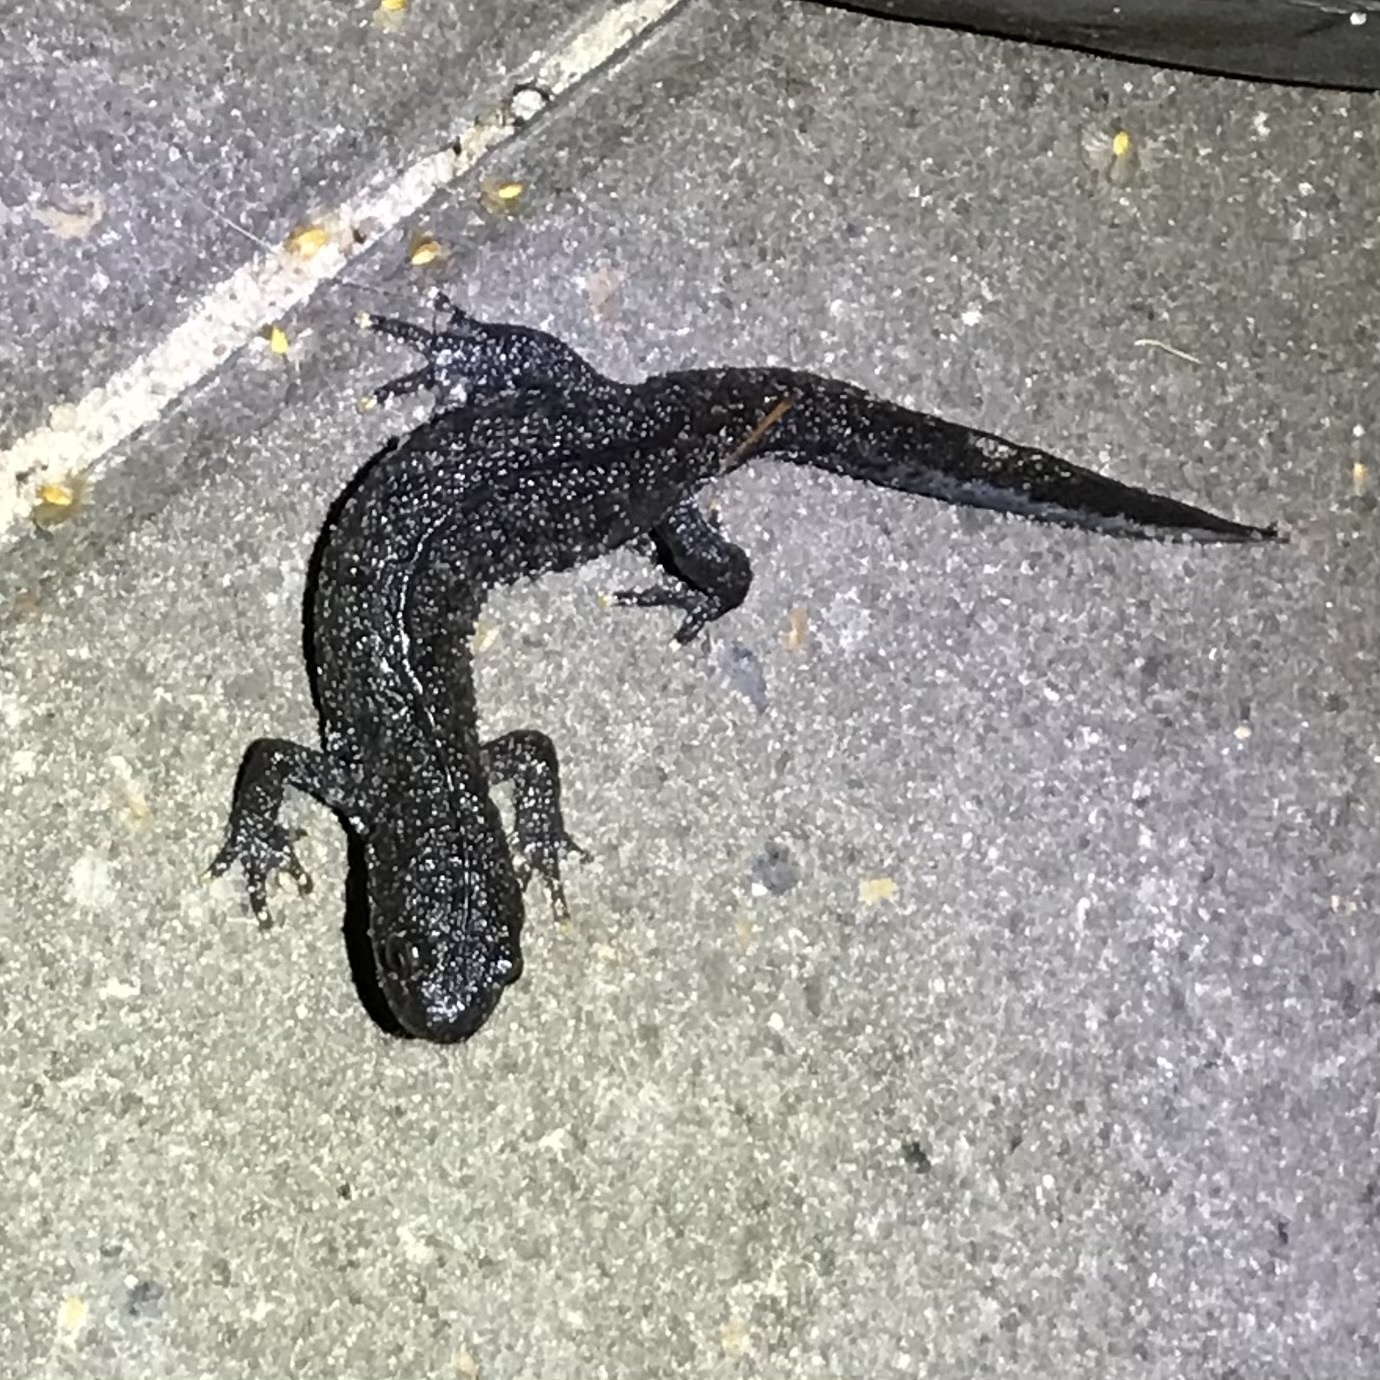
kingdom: Animalia
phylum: Chordata
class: Amphibia
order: Caudata
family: Salamandridae
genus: Triturus
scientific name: Triturus cristatus
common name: Crested newt
